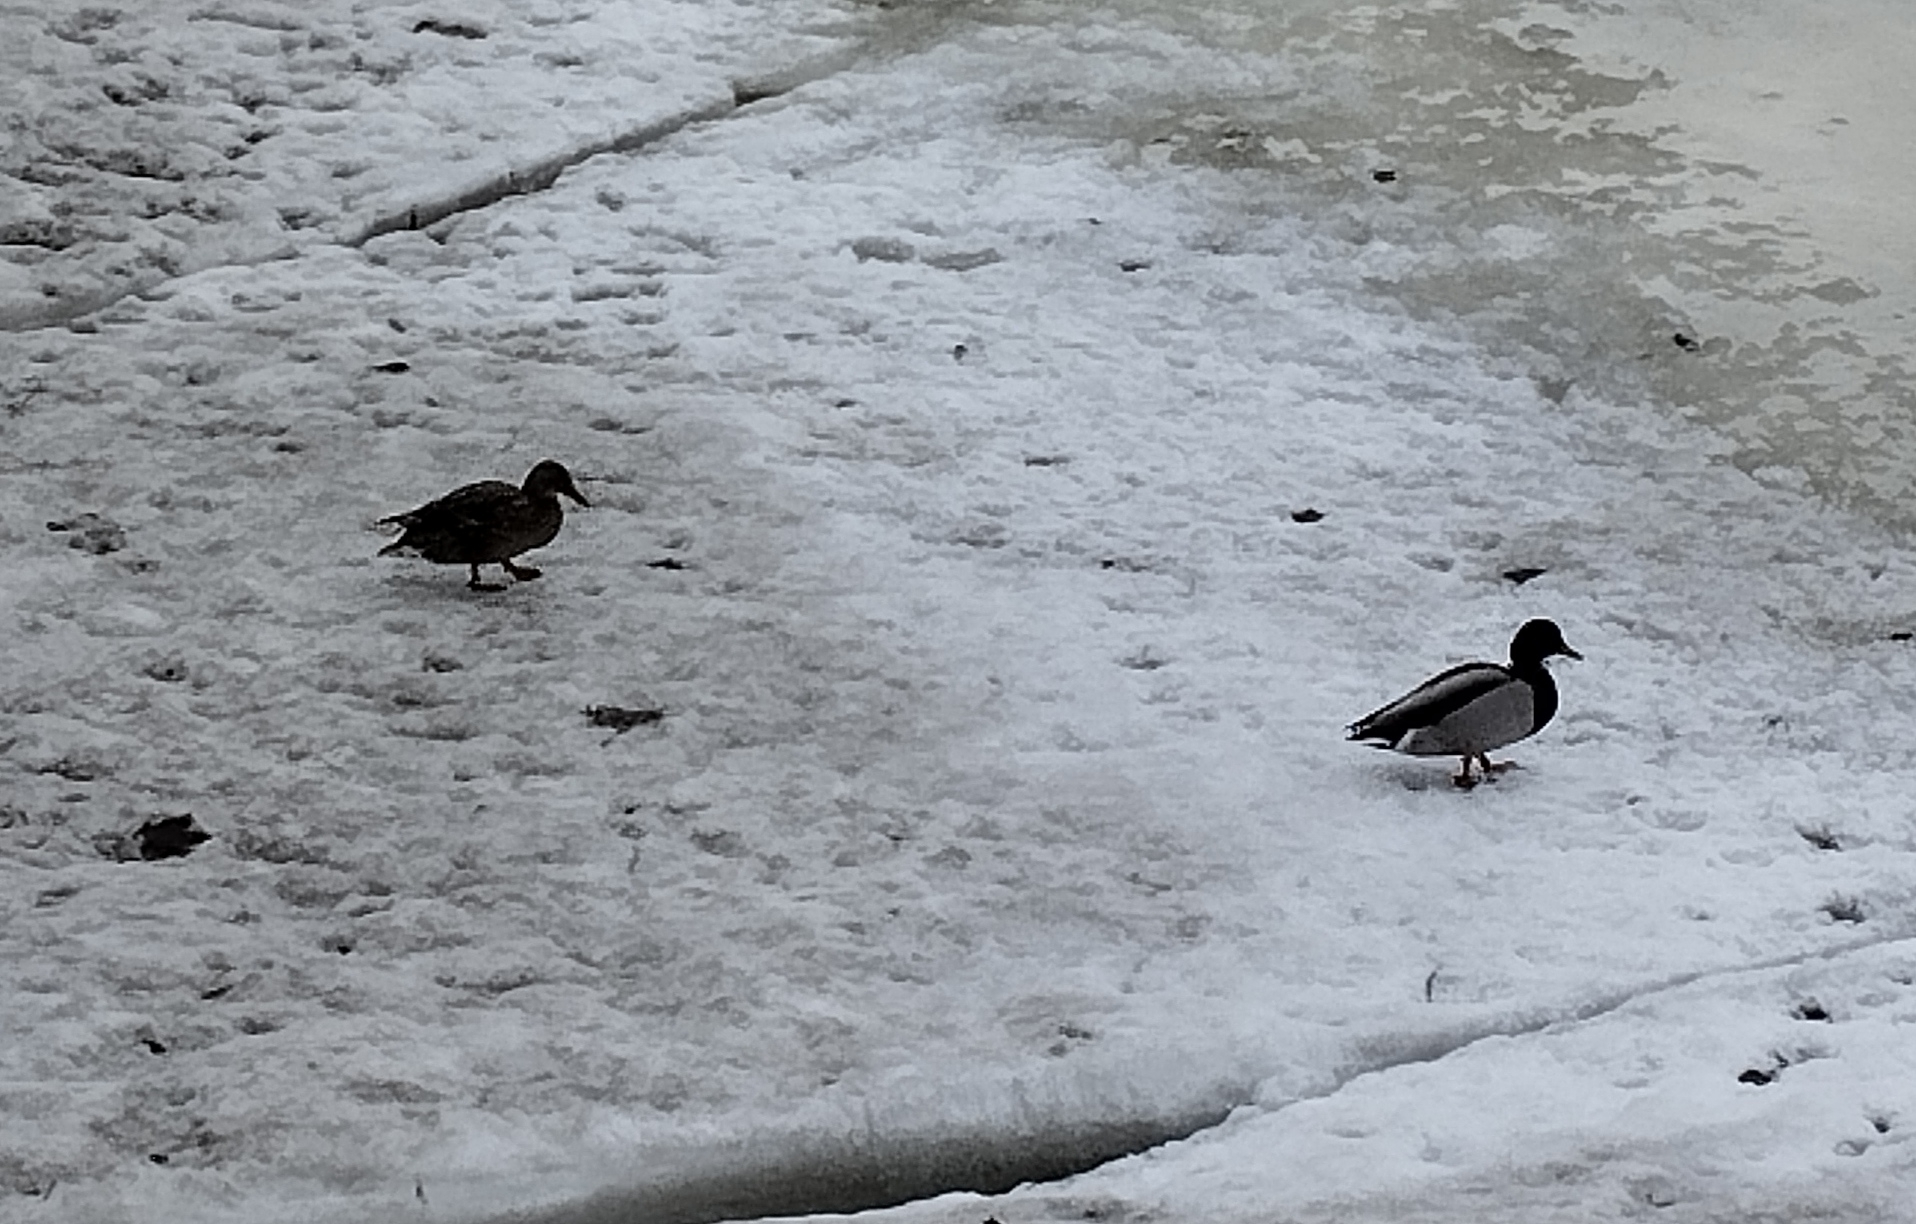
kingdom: Animalia
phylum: Chordata
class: Aves
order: Anseriformes
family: Anatidae
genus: Anas
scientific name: Anas platyrhynchos
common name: Mallard
